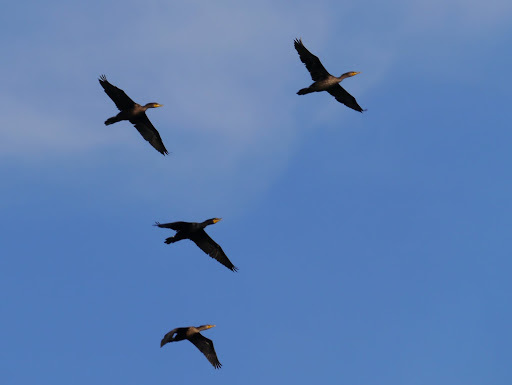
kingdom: Animalia
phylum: Chordata
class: Aves
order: Suliformes
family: Phalacrocoracidae
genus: Phalacrocorax
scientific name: Phalacrocorax auritus
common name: Double-crested cormorant
